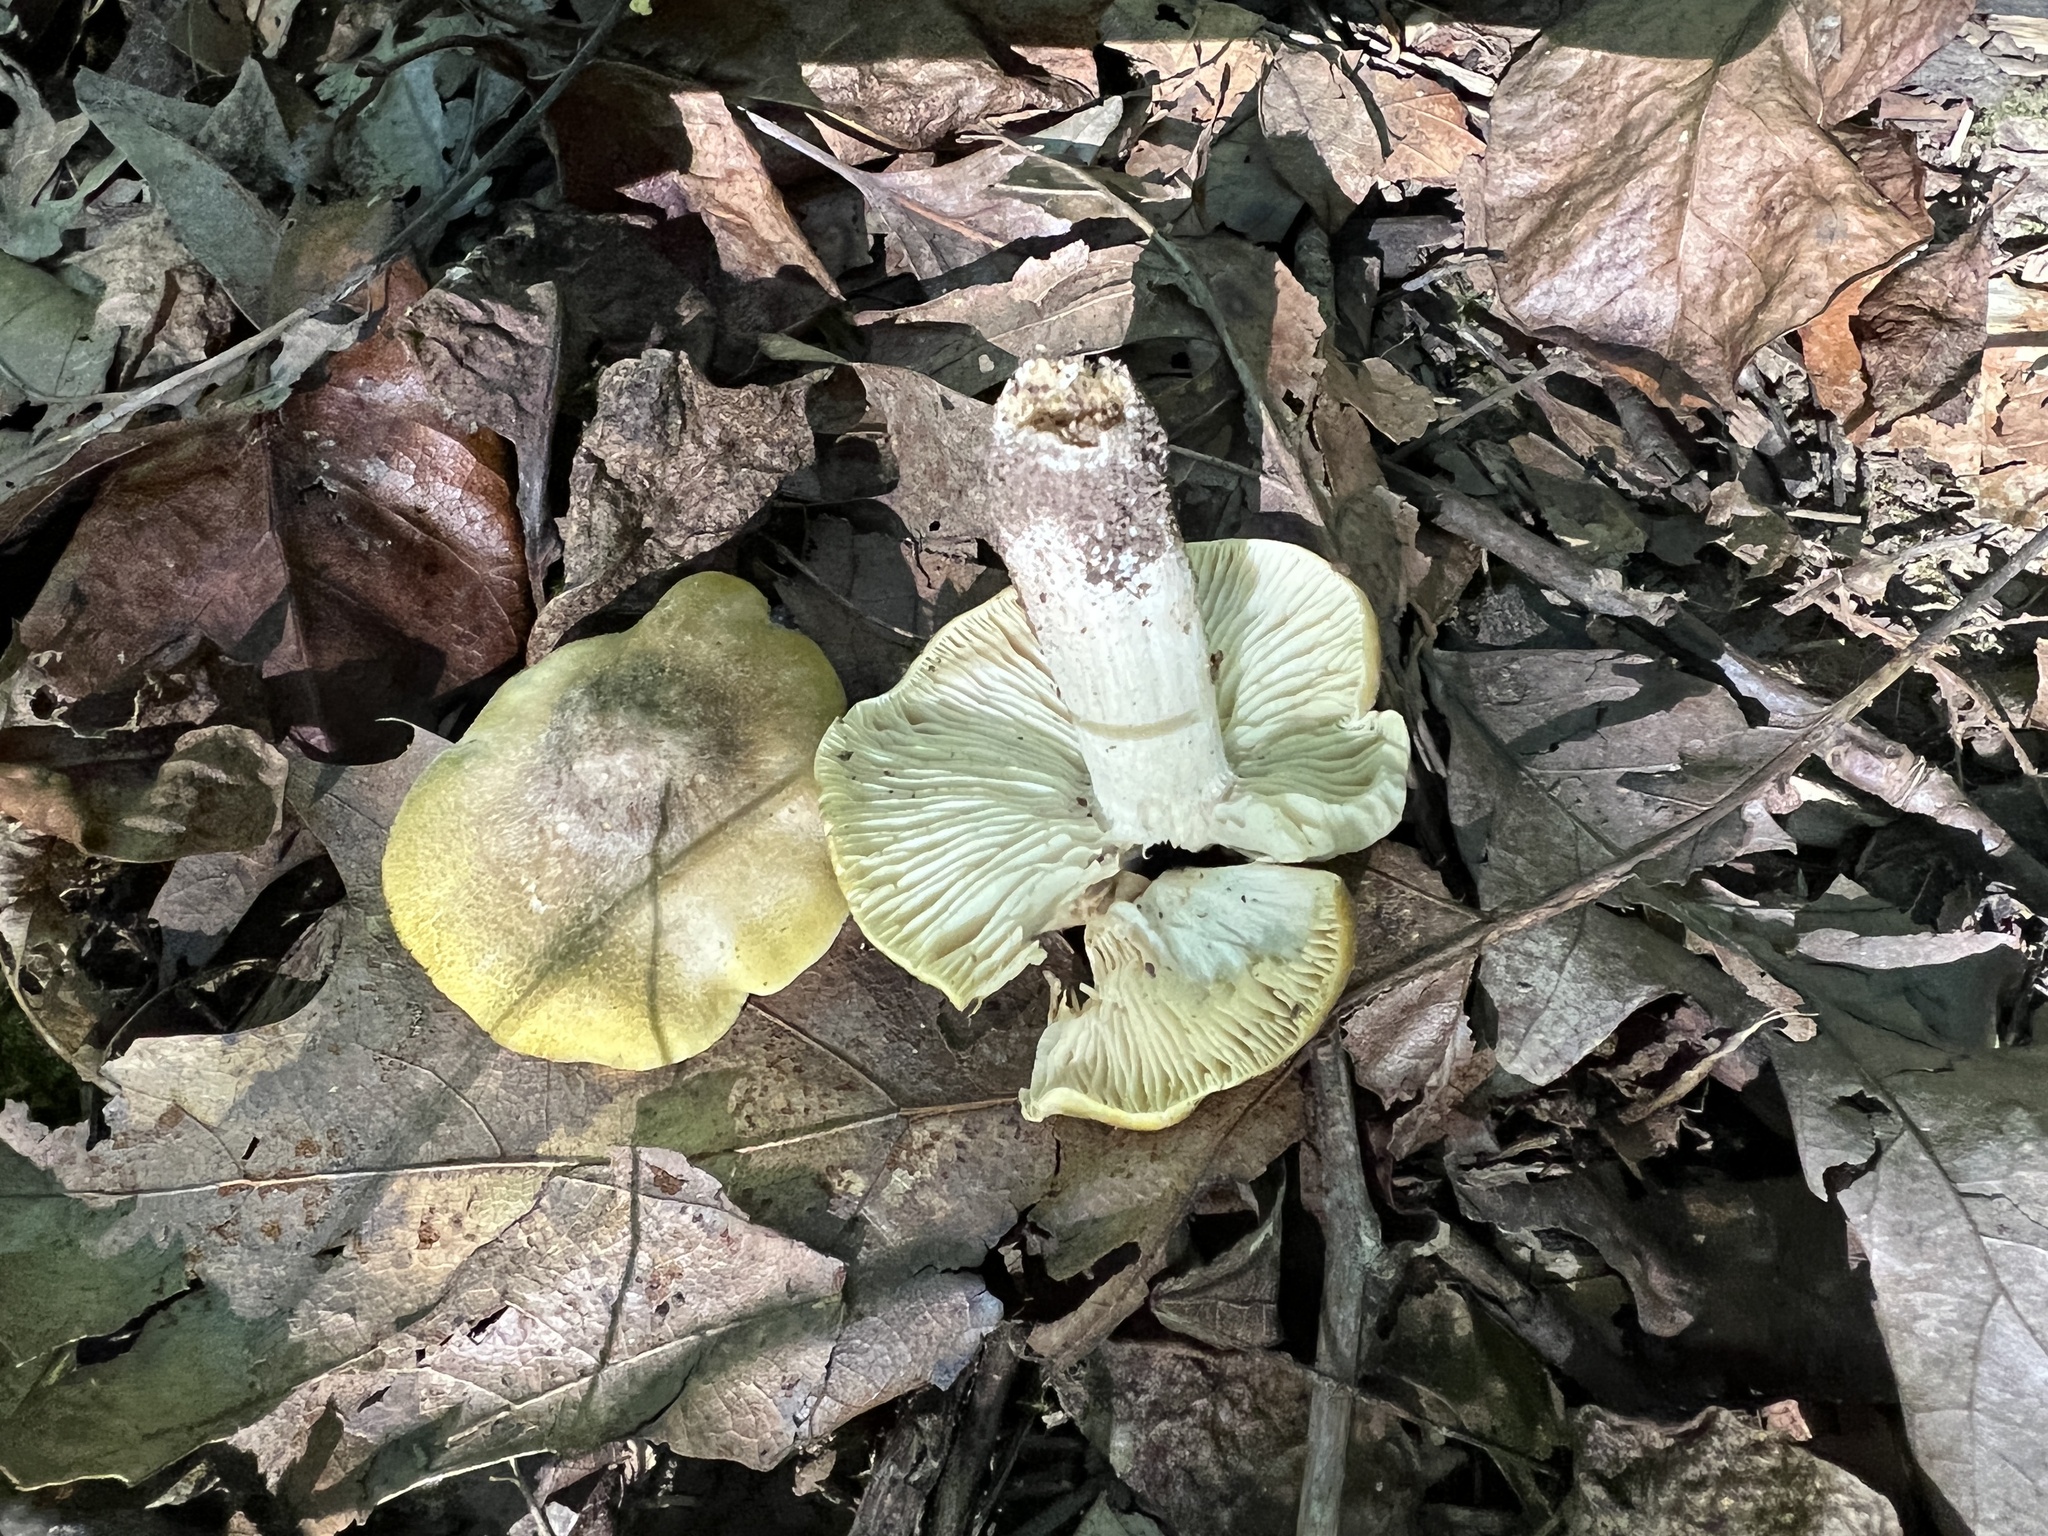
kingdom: Fungi
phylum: Basidiomycota
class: Agaricomycetes
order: Agaricales
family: Tricholomataceae
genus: Tricholoma
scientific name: Tricholoma subaureum
